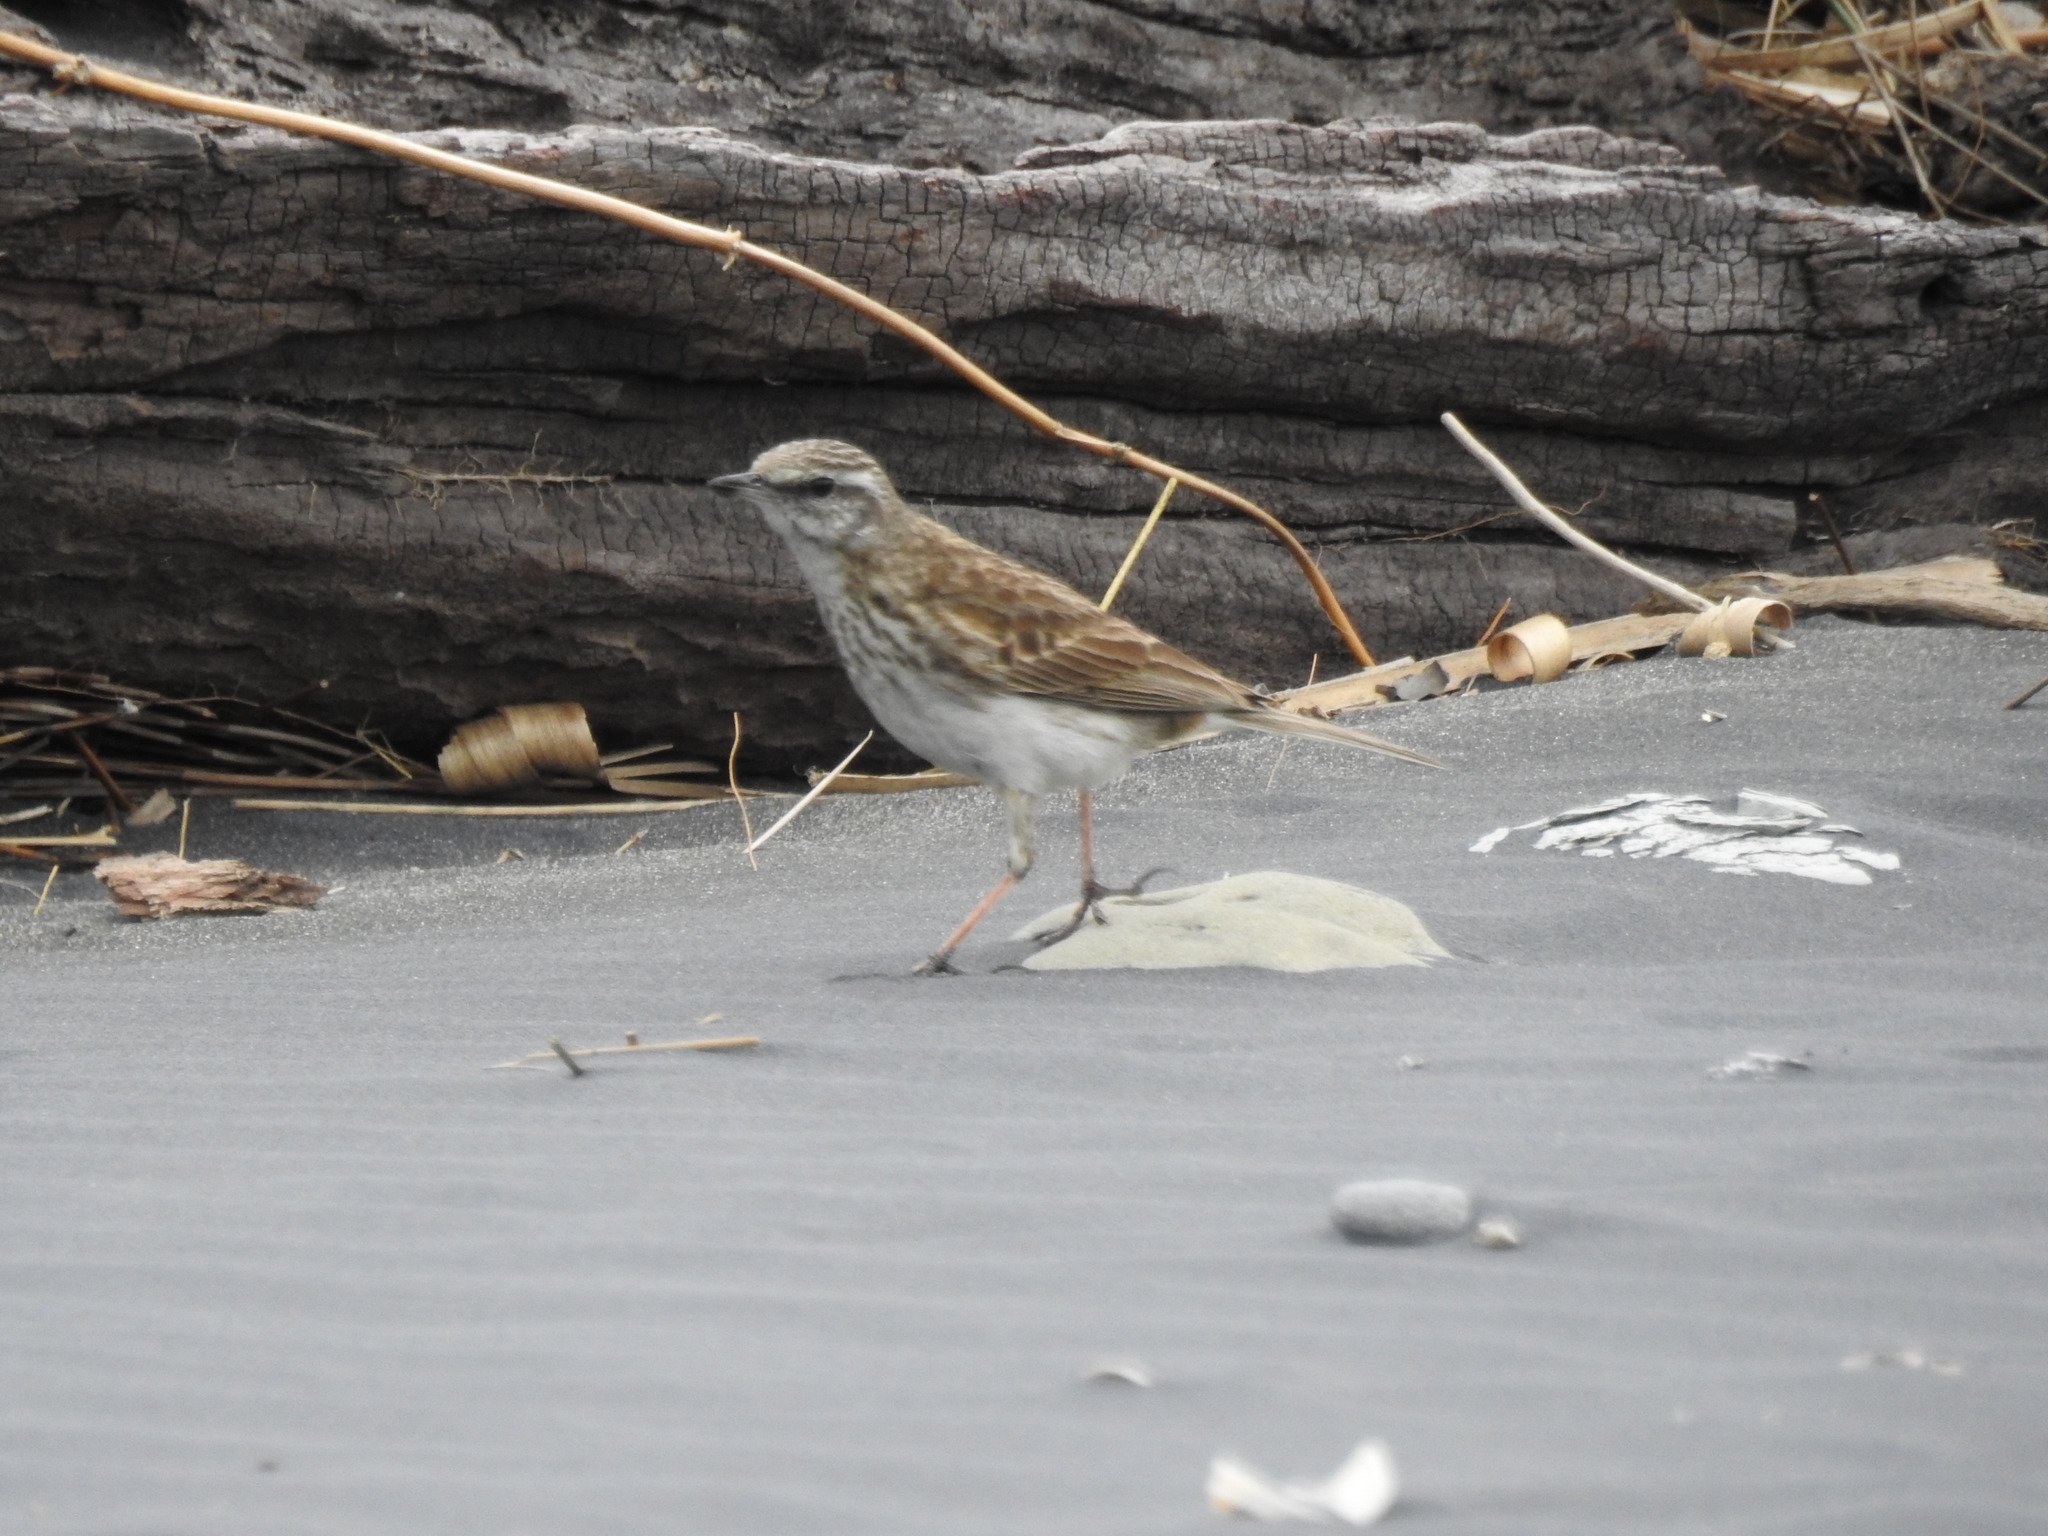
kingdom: Animalia
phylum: Chordata
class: Aves
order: Passeriformes
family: Motacillidae
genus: Anthus
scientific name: Anthus novaeseelandiae
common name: New zealand pipit
